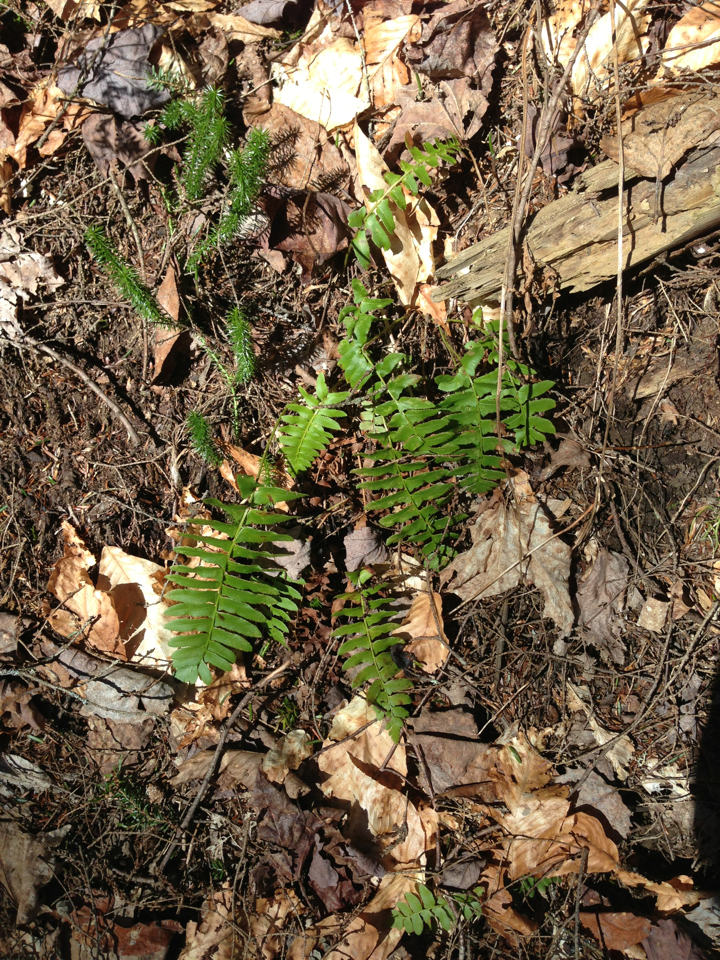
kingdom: Plantae
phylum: Tracheophyta
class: Polypodiopsida
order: Polypodiales
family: Dryopteridaceae
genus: Polystichum
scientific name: Polystichum acrostichoides
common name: Christmas fern
